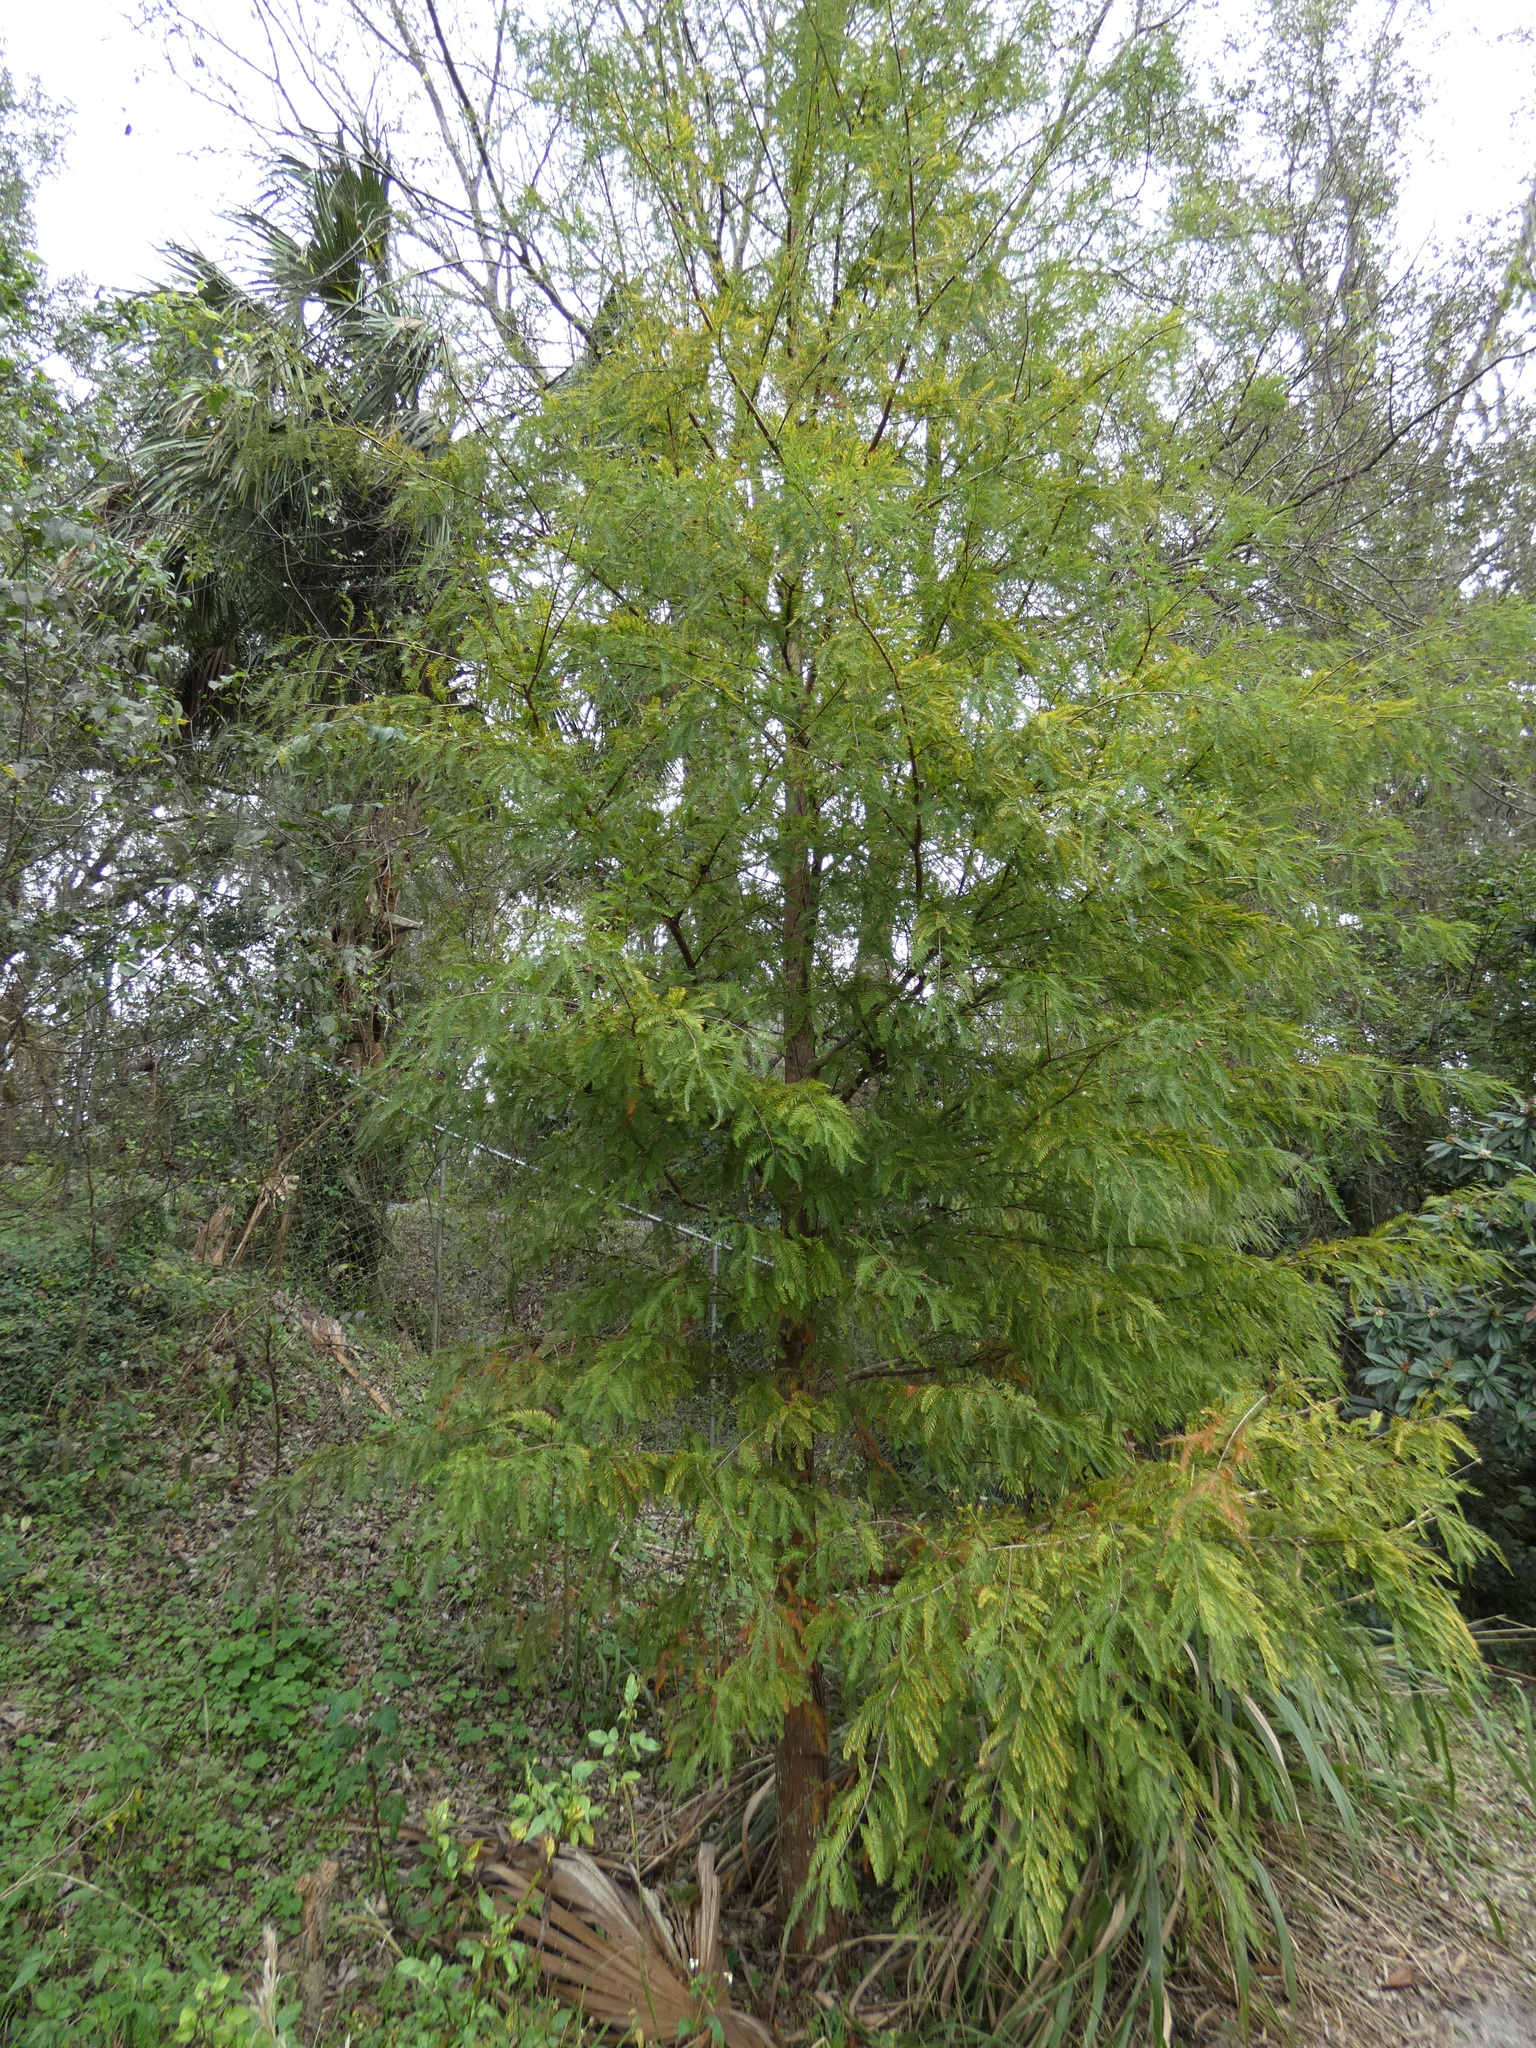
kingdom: Plantae
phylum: Tracheophyta
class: Pinopsida
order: Pinales
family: Cupressaceae
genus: Taxodium
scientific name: Taxodium distichum
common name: Bald cypress
